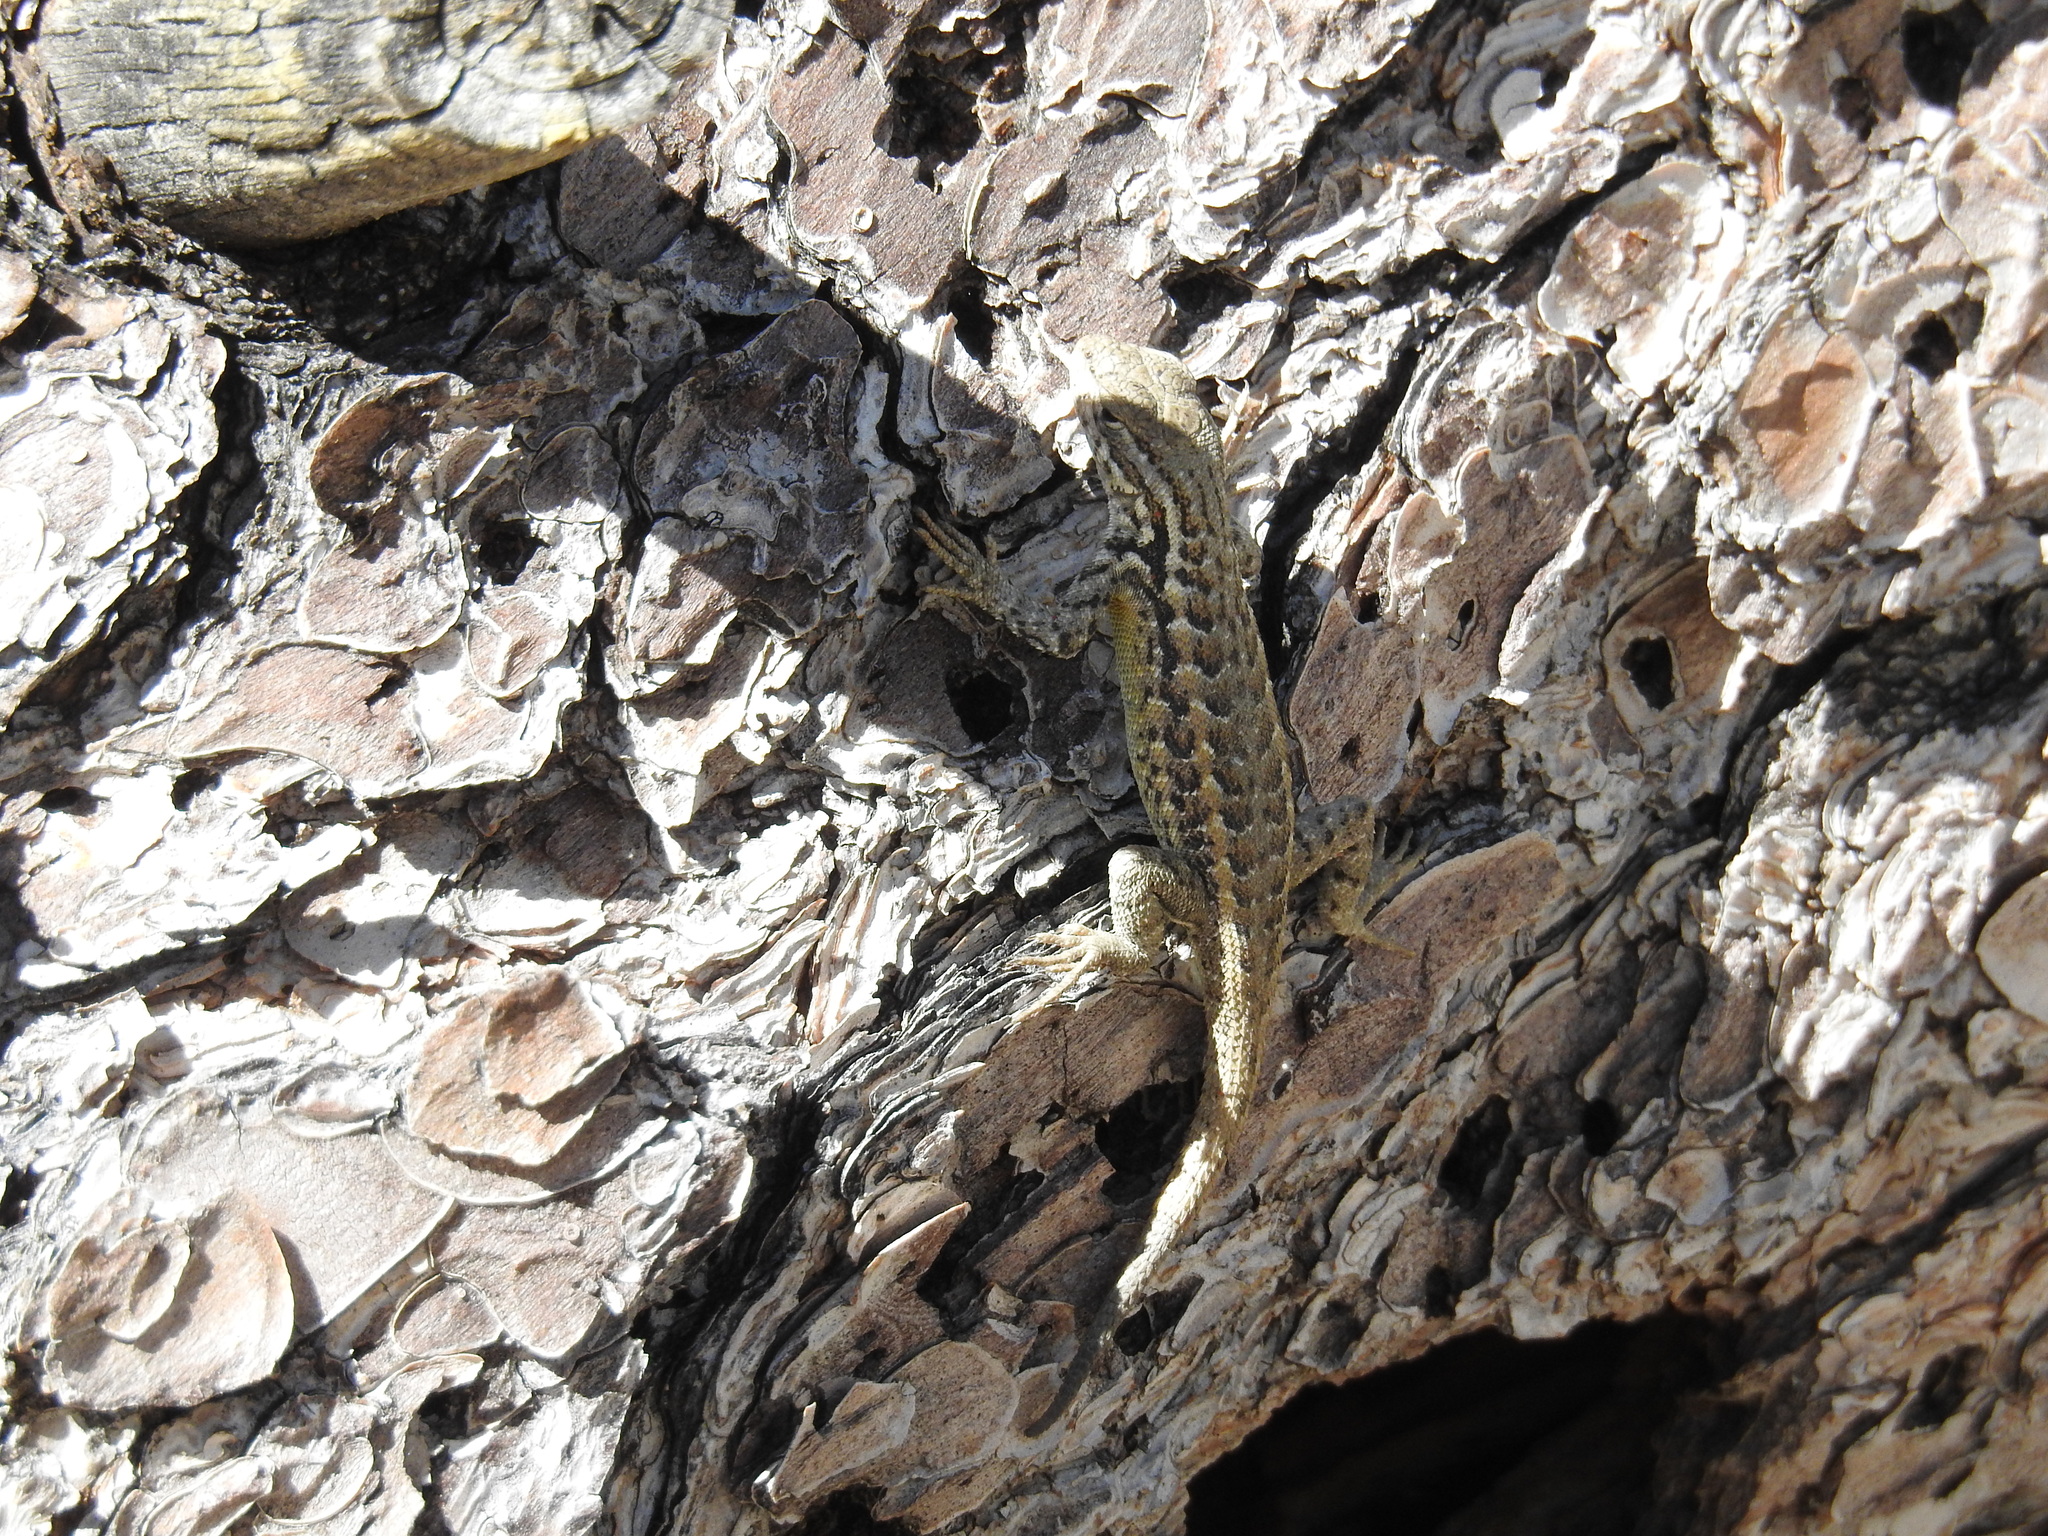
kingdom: Animalia
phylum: Chordata
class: Squamata
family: Phrynosomatidae
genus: Sceloporus
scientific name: Sceloporus graciosus
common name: Sagebrush lizard
